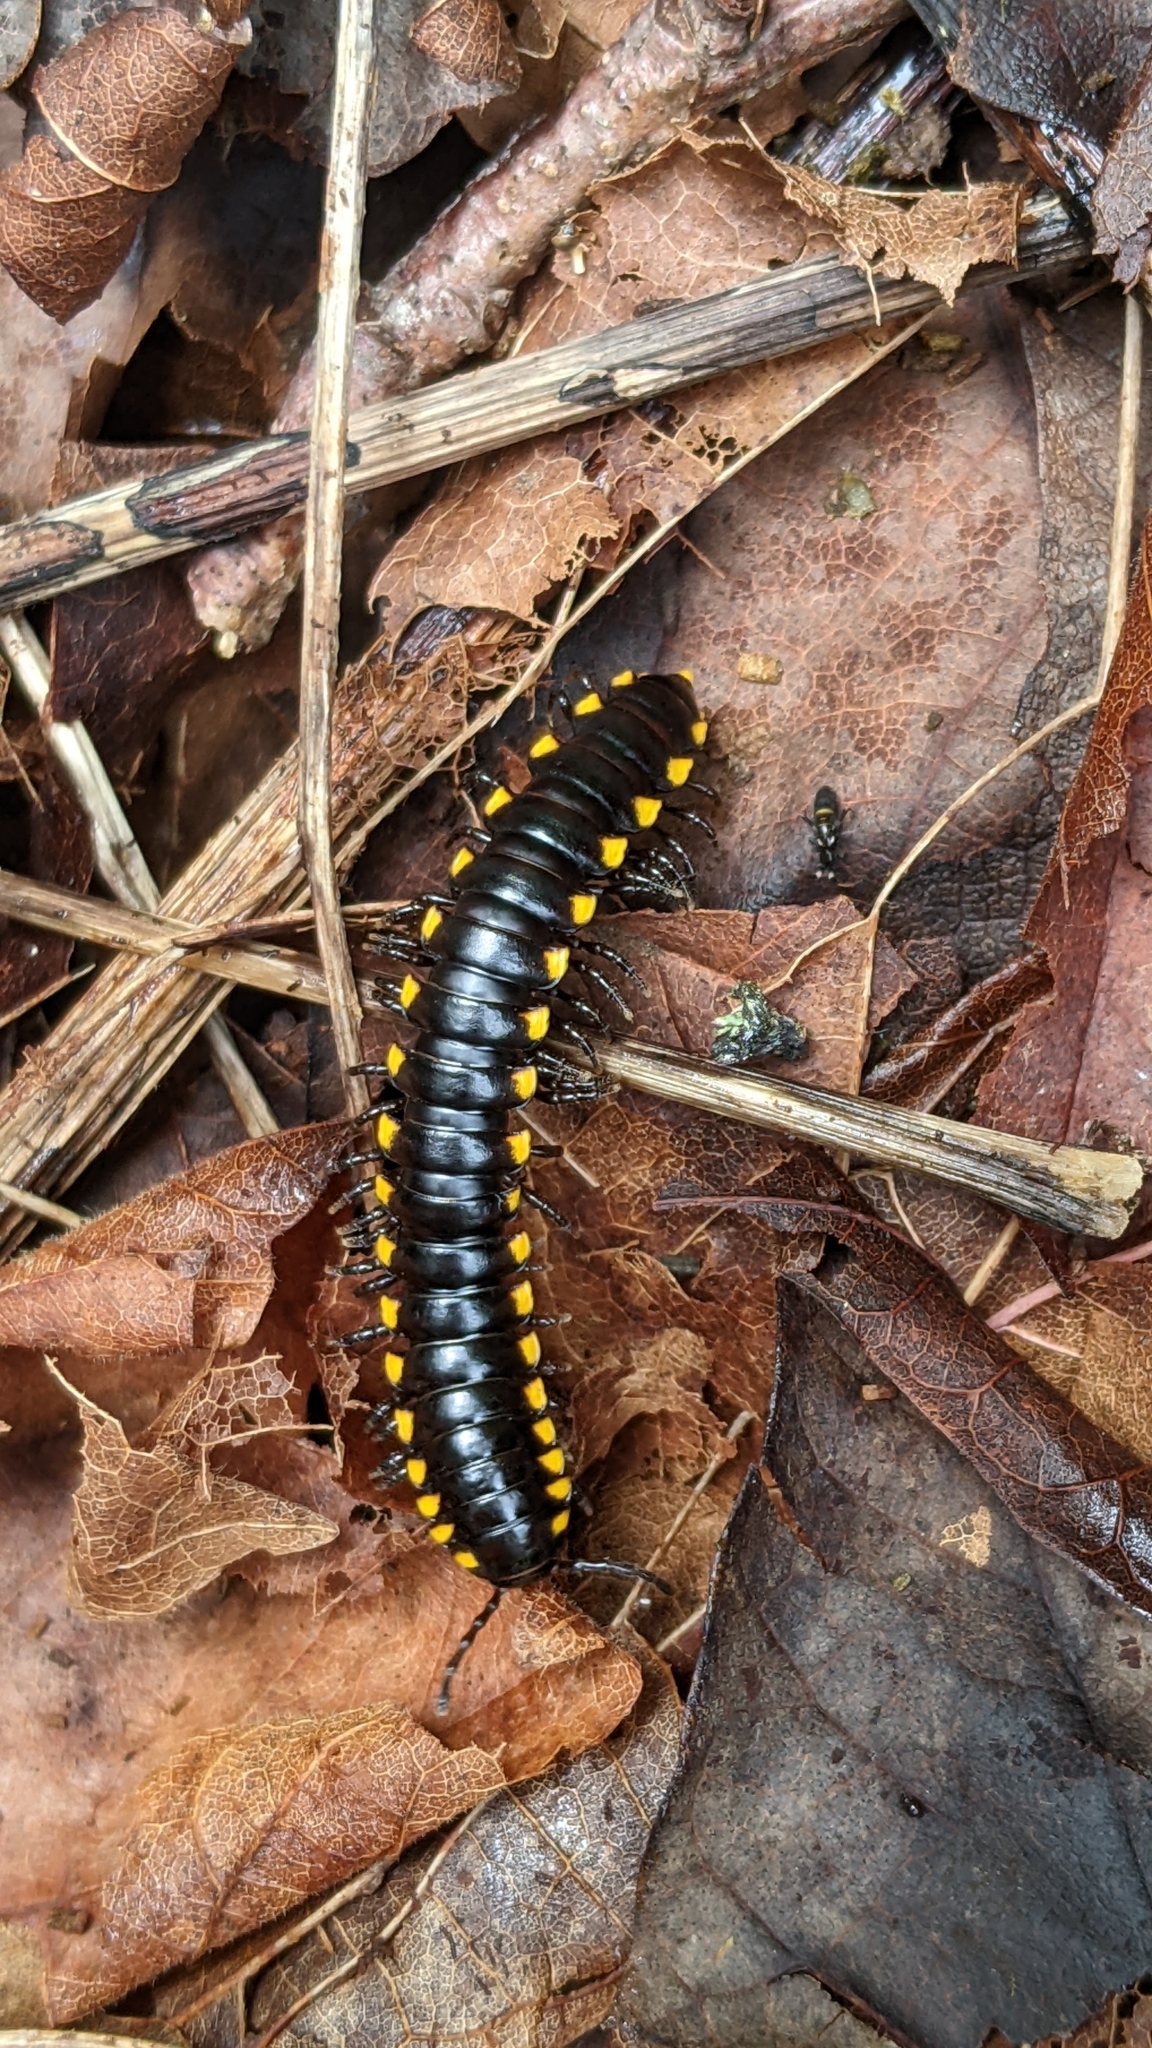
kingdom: Animalia
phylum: Arthropoda
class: Diplopoda
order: Polydesmida
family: Xystodesmidae
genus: Harpaphe
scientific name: Harpaphe haydeniana
